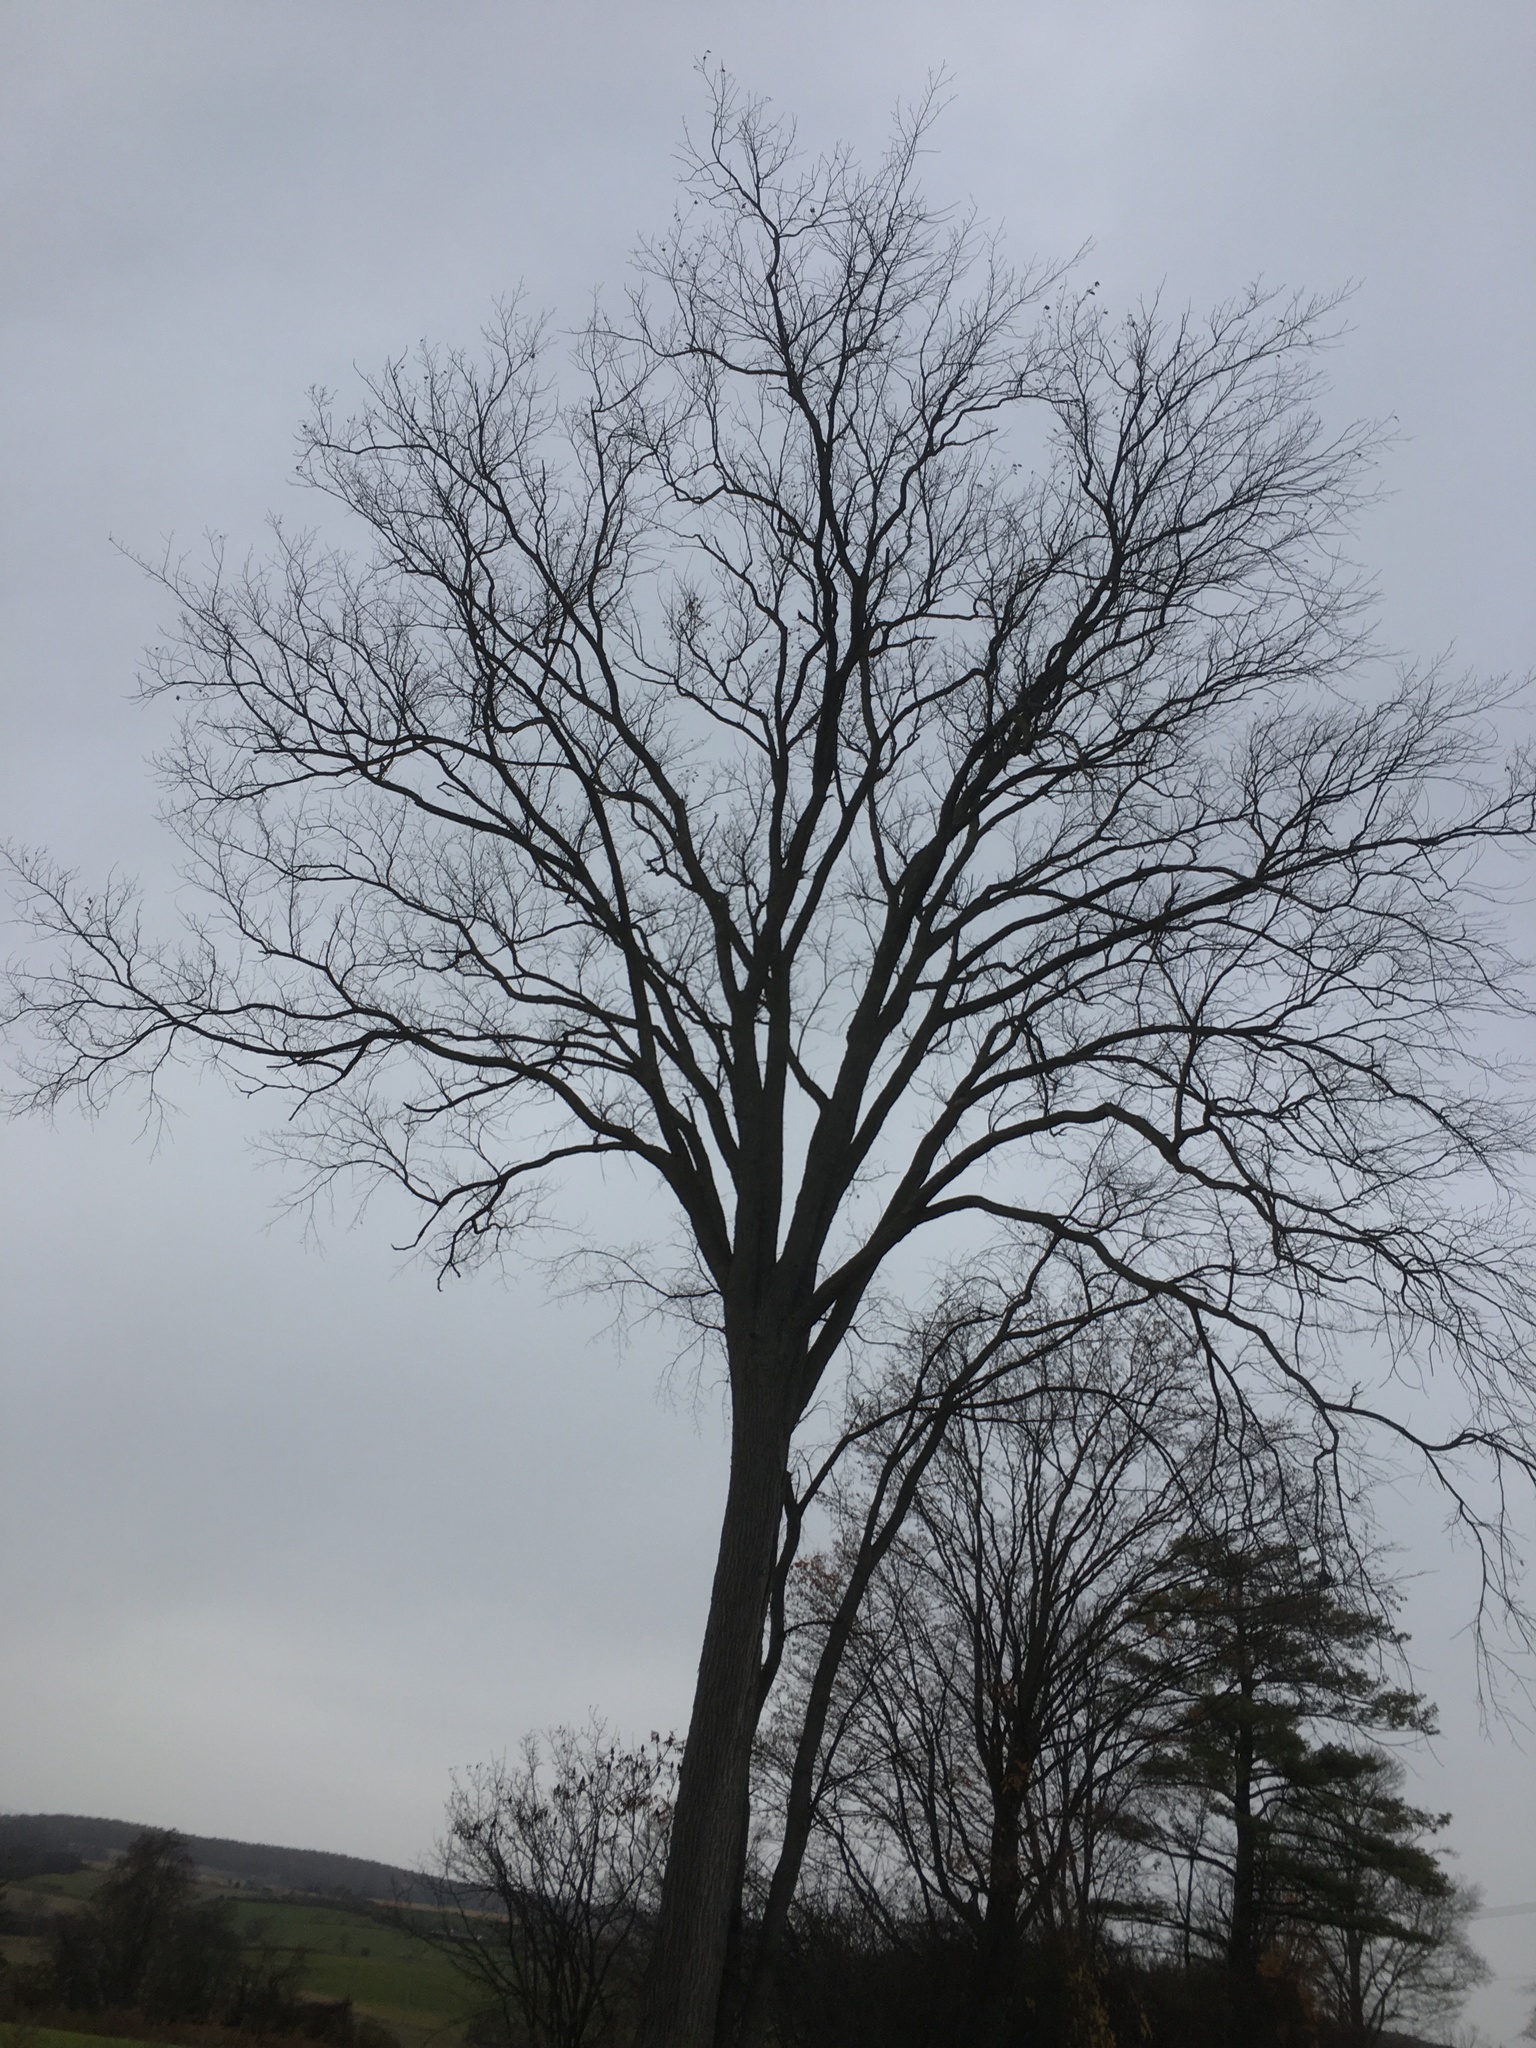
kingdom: Plantae
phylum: Tracheophyta
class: Magnoliopsida
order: Rosales
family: Ulmaceae
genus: Ulmus
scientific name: Ulmus americana
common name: American elm
